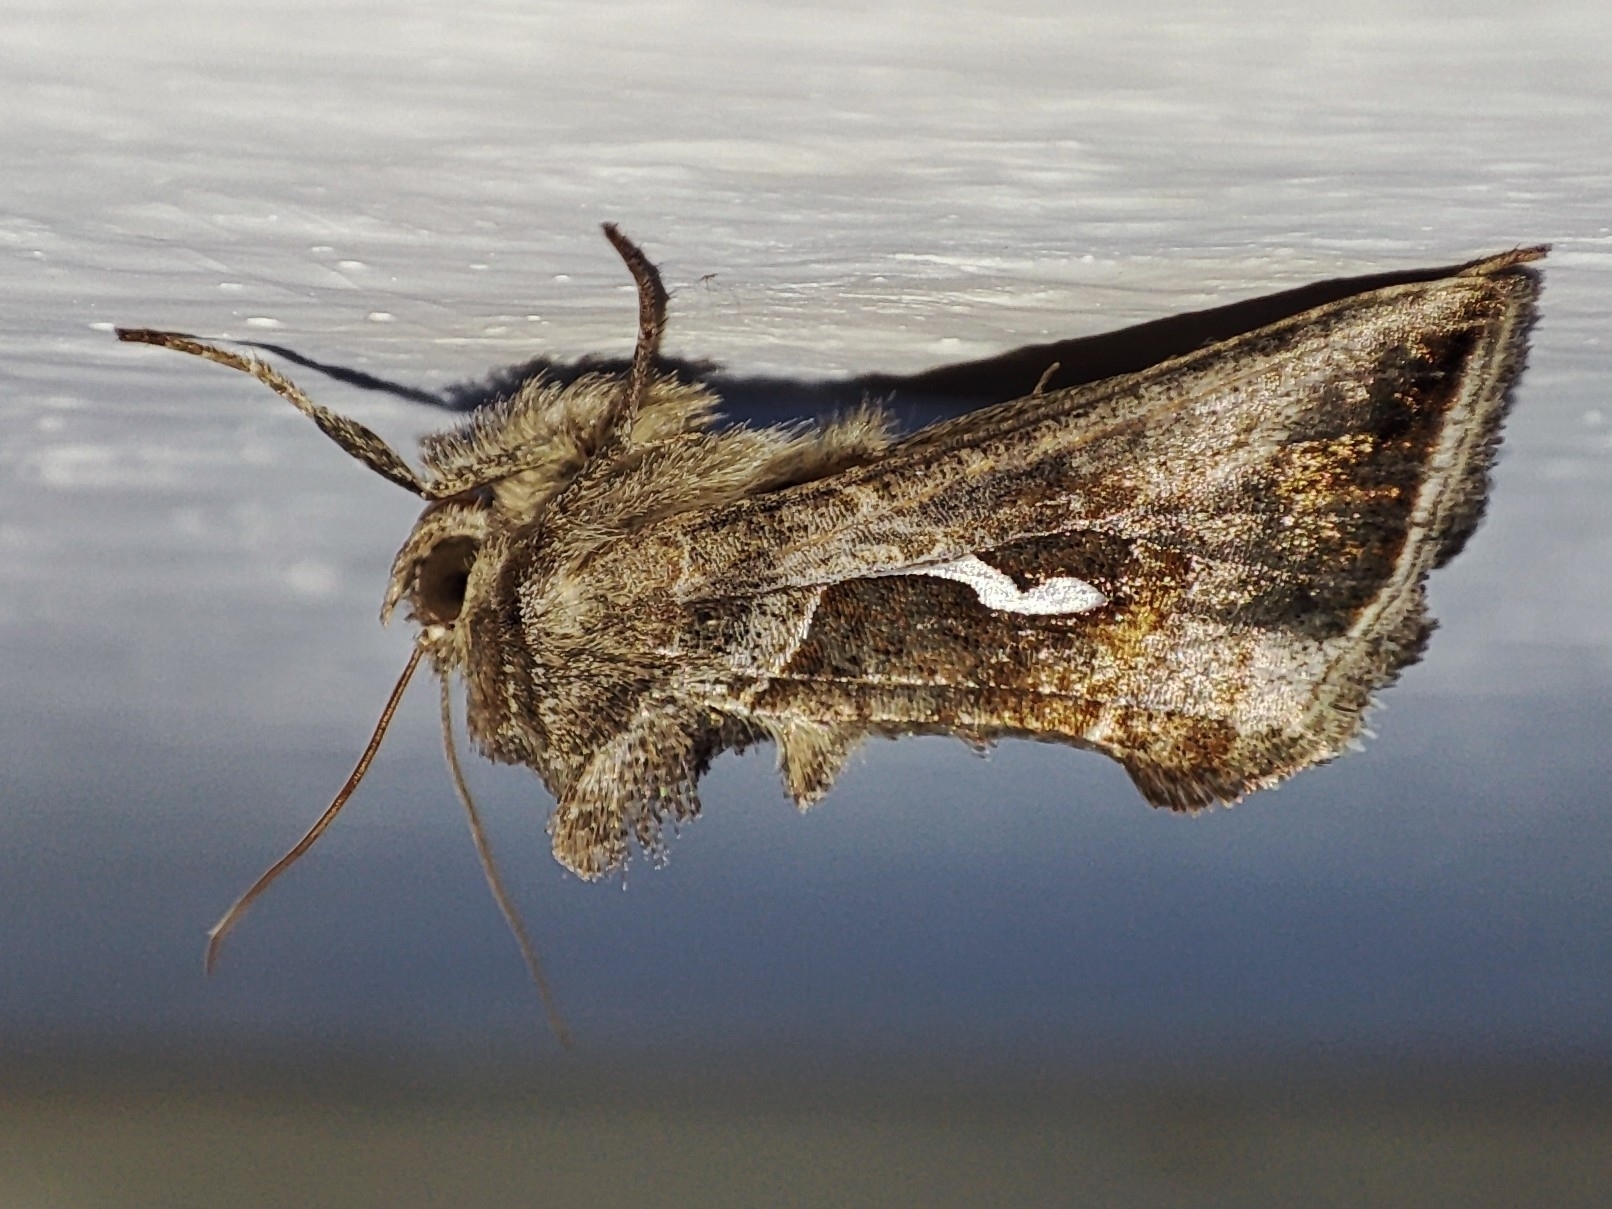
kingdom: Animalia
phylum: Arthropoda
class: Insecta
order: Lepidoptera
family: Noctuidae
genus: Macdunnoughia
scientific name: Macdunnoughia confusa
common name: Dewick's plusia
